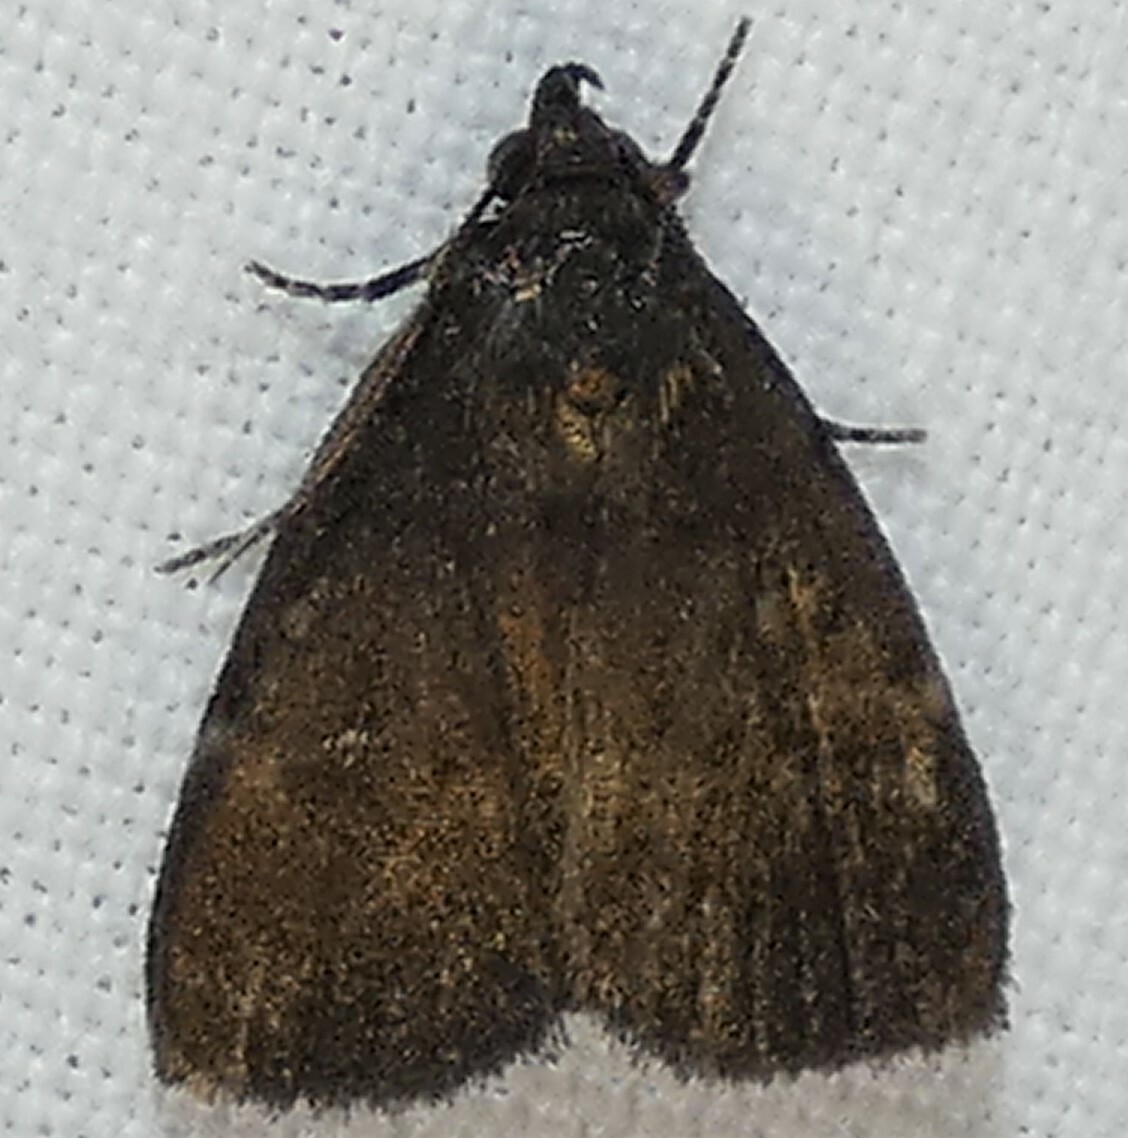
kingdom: Animalia
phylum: Arthropoda
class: Insecta
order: Lepidoptera
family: Erebidae
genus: Idia
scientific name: Idia rotundalis
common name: Rotund idia moth
